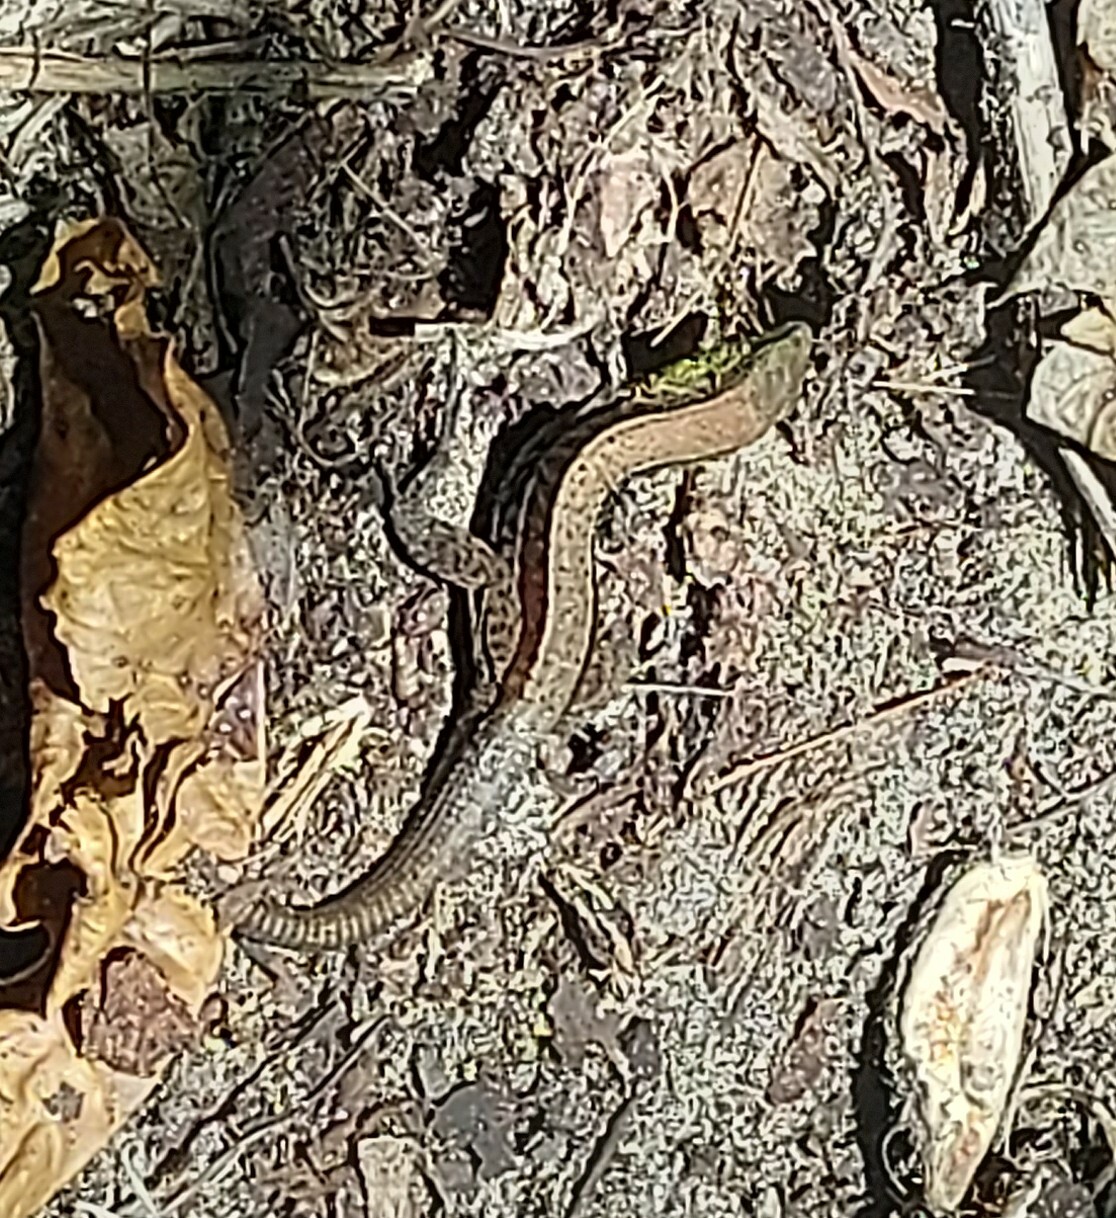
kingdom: Animalia
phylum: Chordata
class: Squamata
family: Teiidae
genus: Holcosus
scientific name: Holcosus quadrilineatus
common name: Four-lined ameiva
